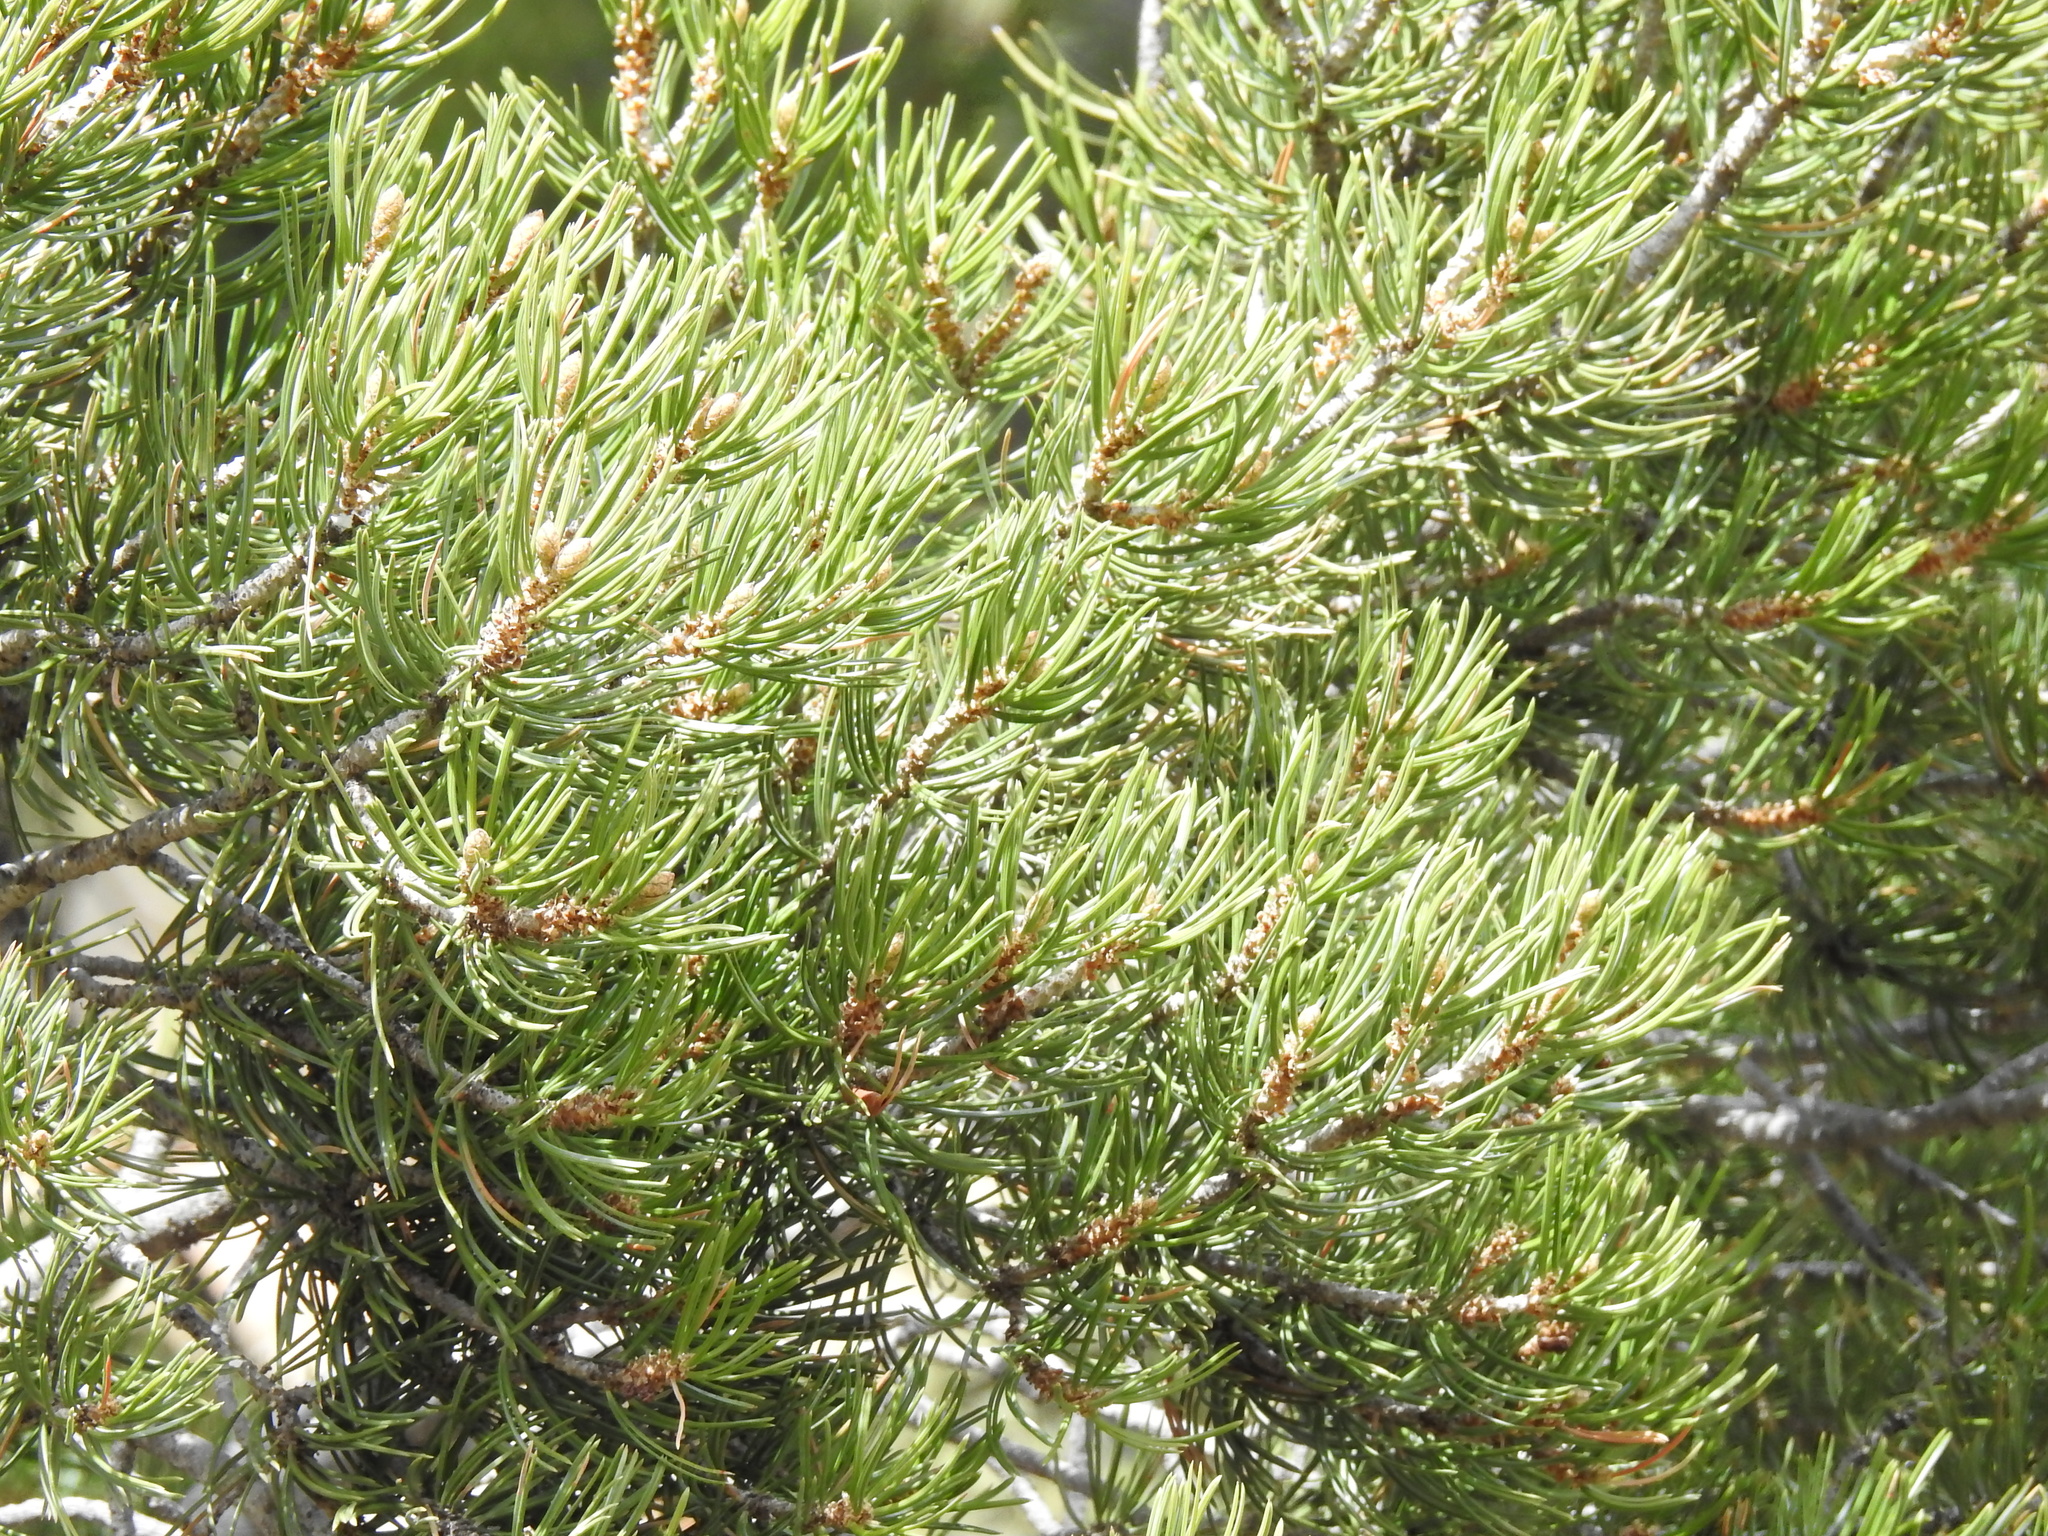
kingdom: Plantae
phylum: Tracheophyta
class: Pinopsida
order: Pinales
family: Pinaceae
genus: Pinus
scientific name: Pinus edulis
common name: Colorado pinyon
